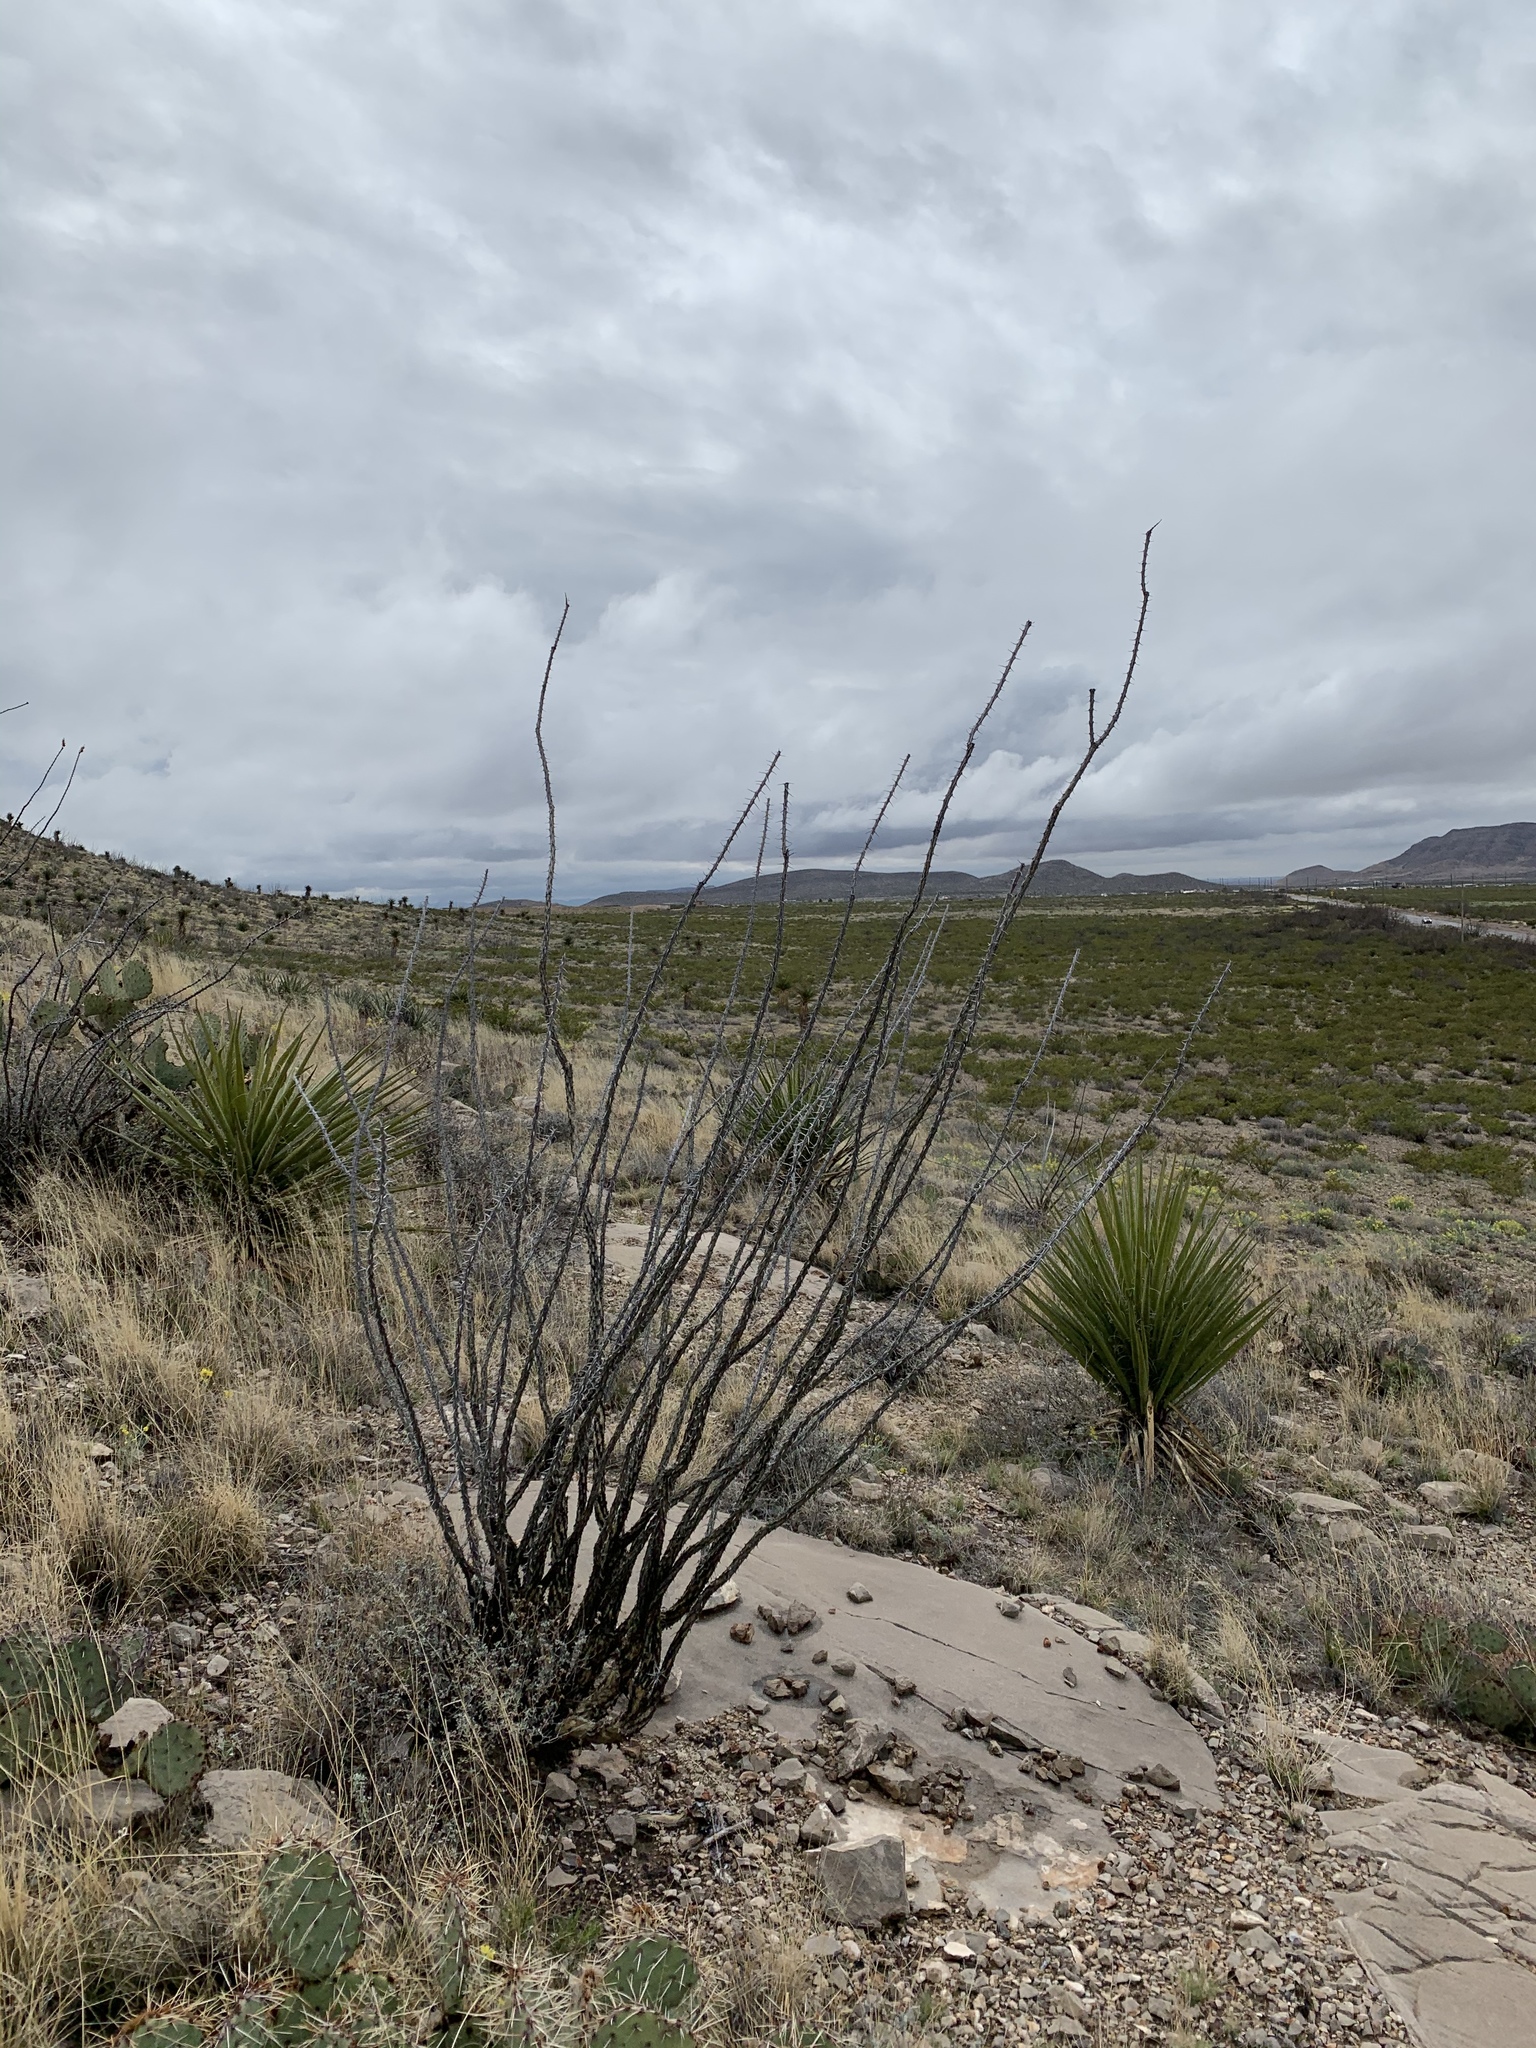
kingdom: Plantae
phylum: Tracheophyta
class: Magnoliopsida
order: Ericales
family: Fouquieriaceae
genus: Fouquieria
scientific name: Fouquieria splendens
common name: Vine-cactus
